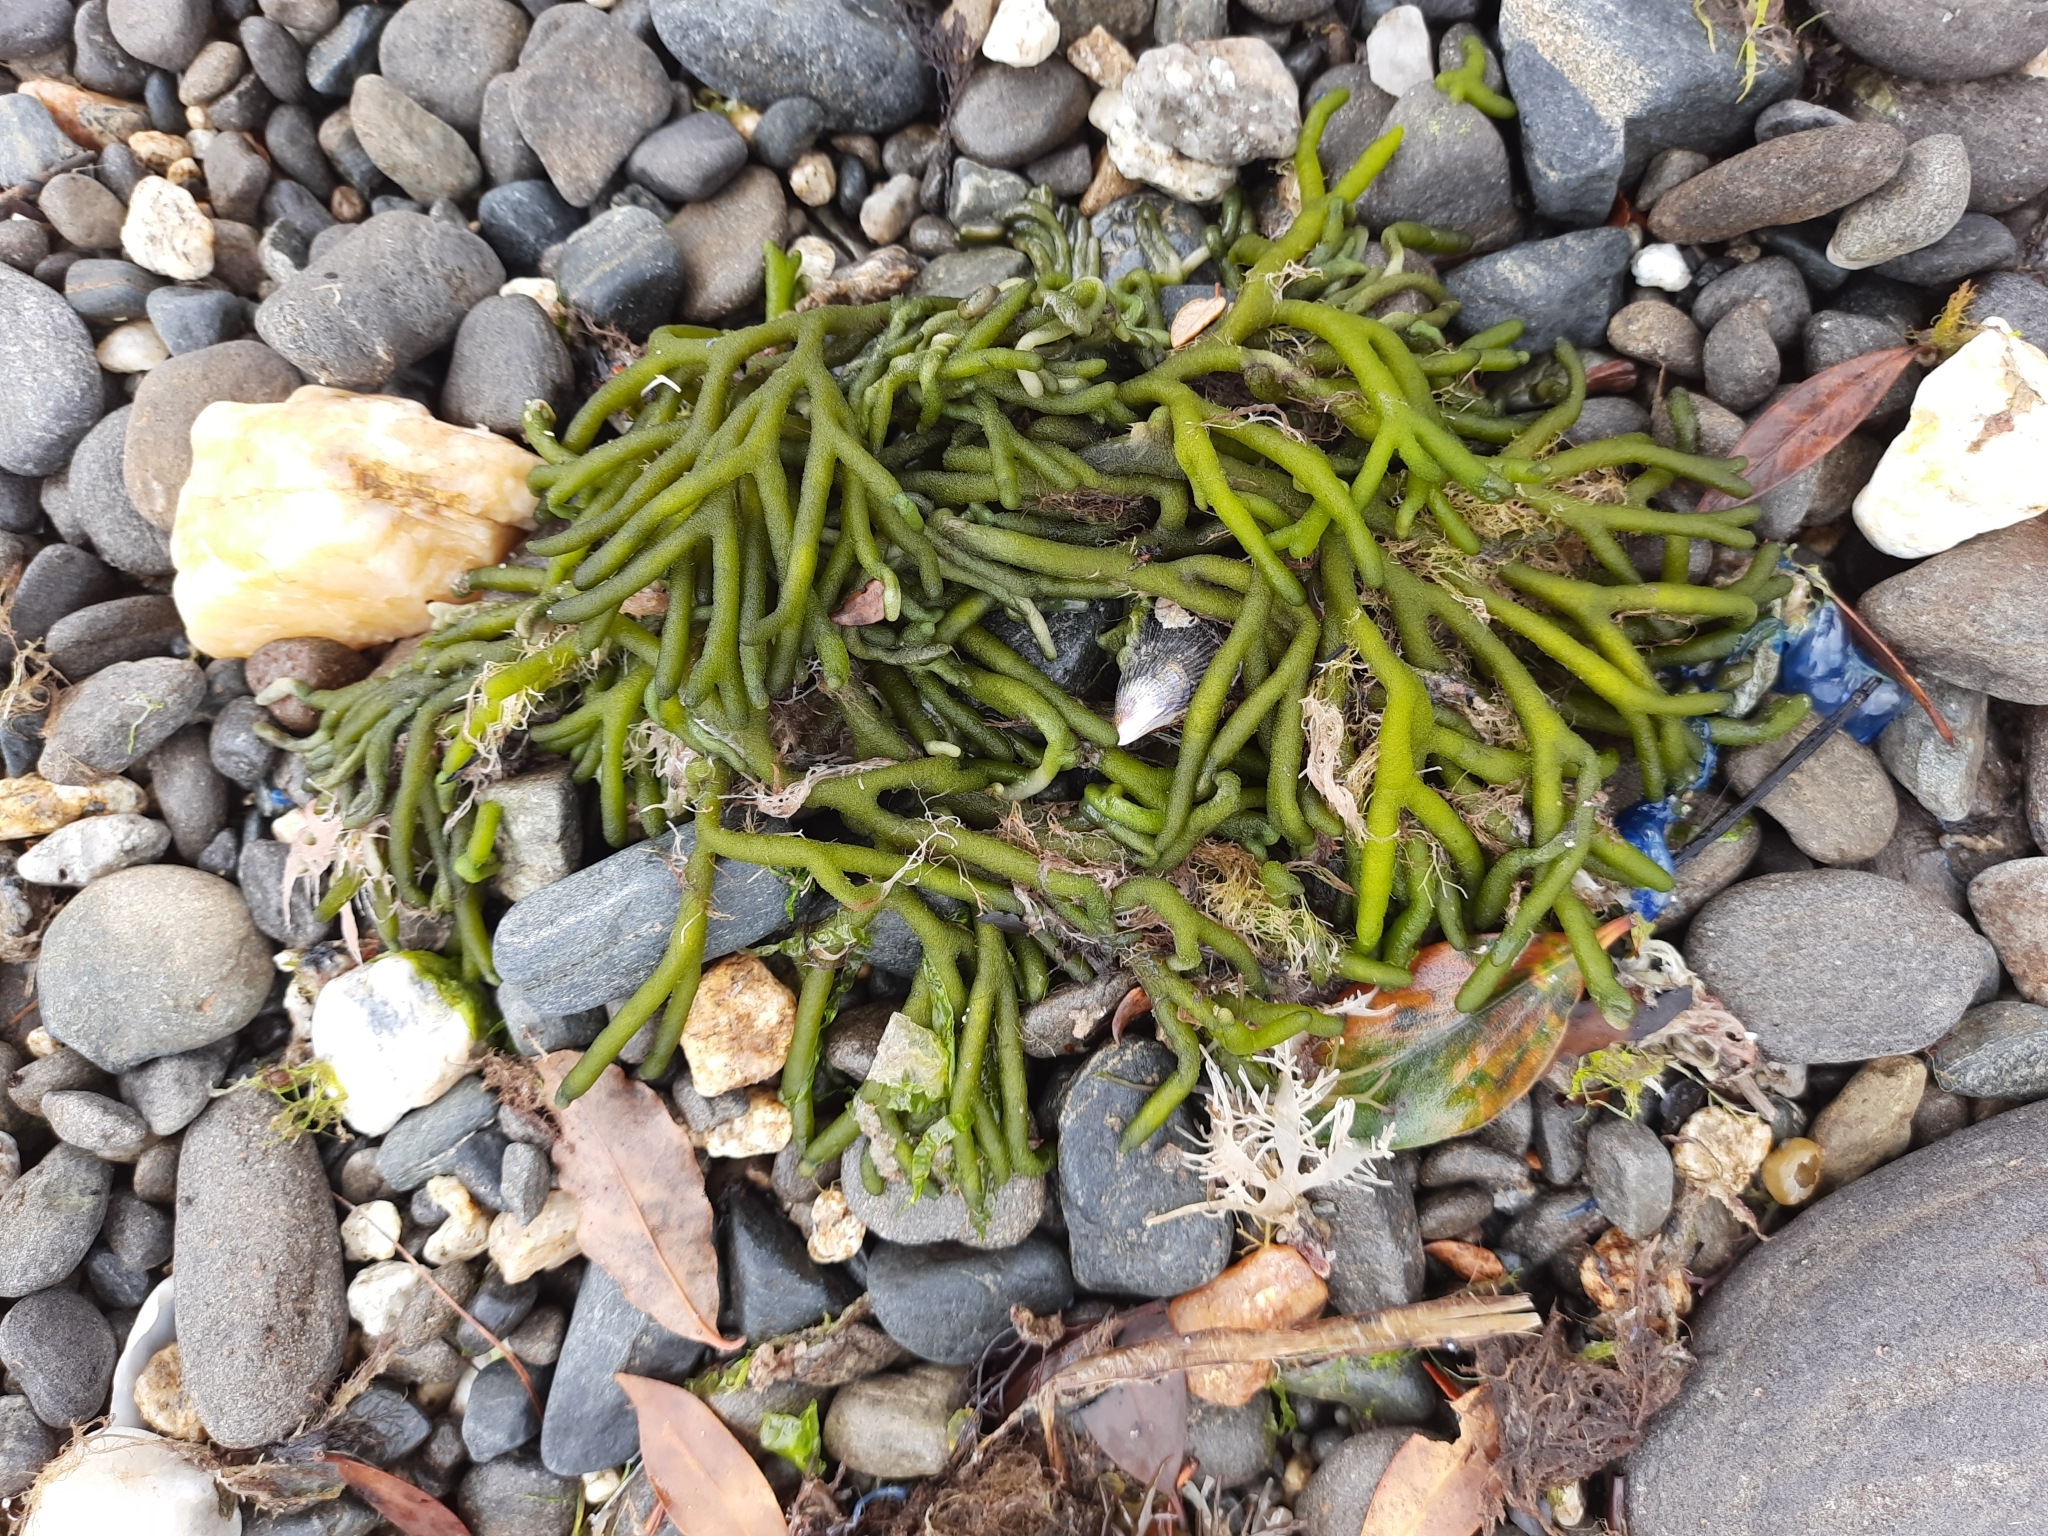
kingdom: Plantae
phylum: Chlorophyta
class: Ulvophyceae
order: Bryopsidales
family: Codiaceae
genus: Codium
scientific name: Codium fragile
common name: Dead man's fingers
